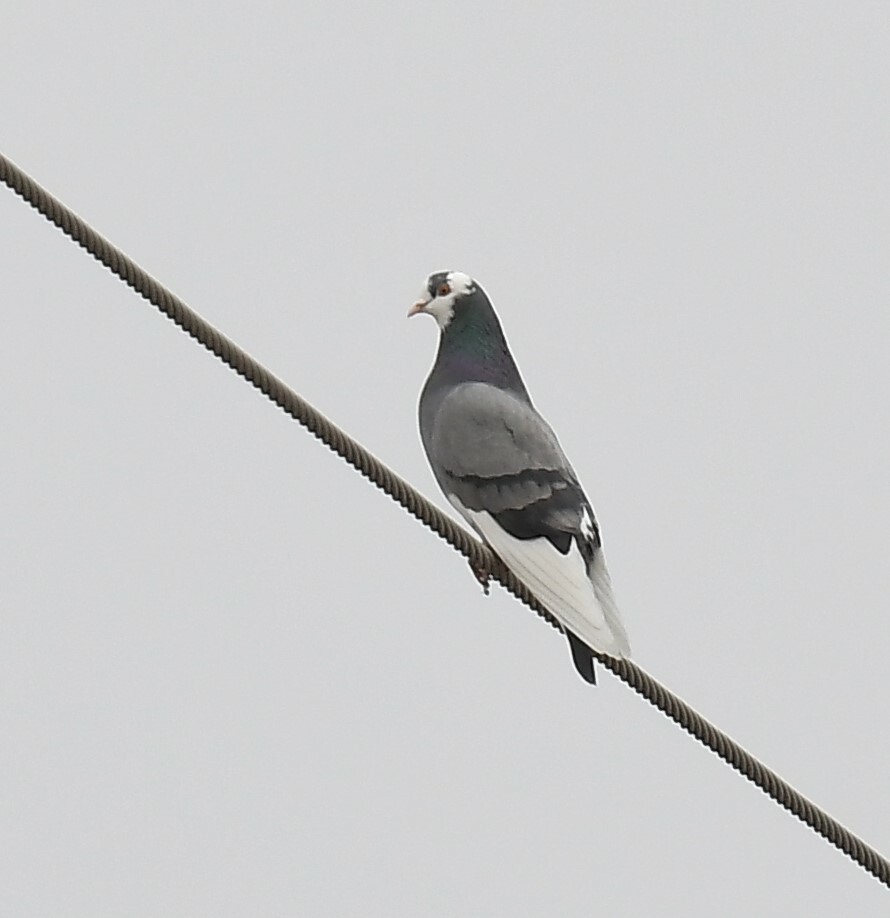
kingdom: Animalia
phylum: Chordata
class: Aves
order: Columbiformes
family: Columbidae
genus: Columba
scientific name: Columba livia
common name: Rock pigeon
